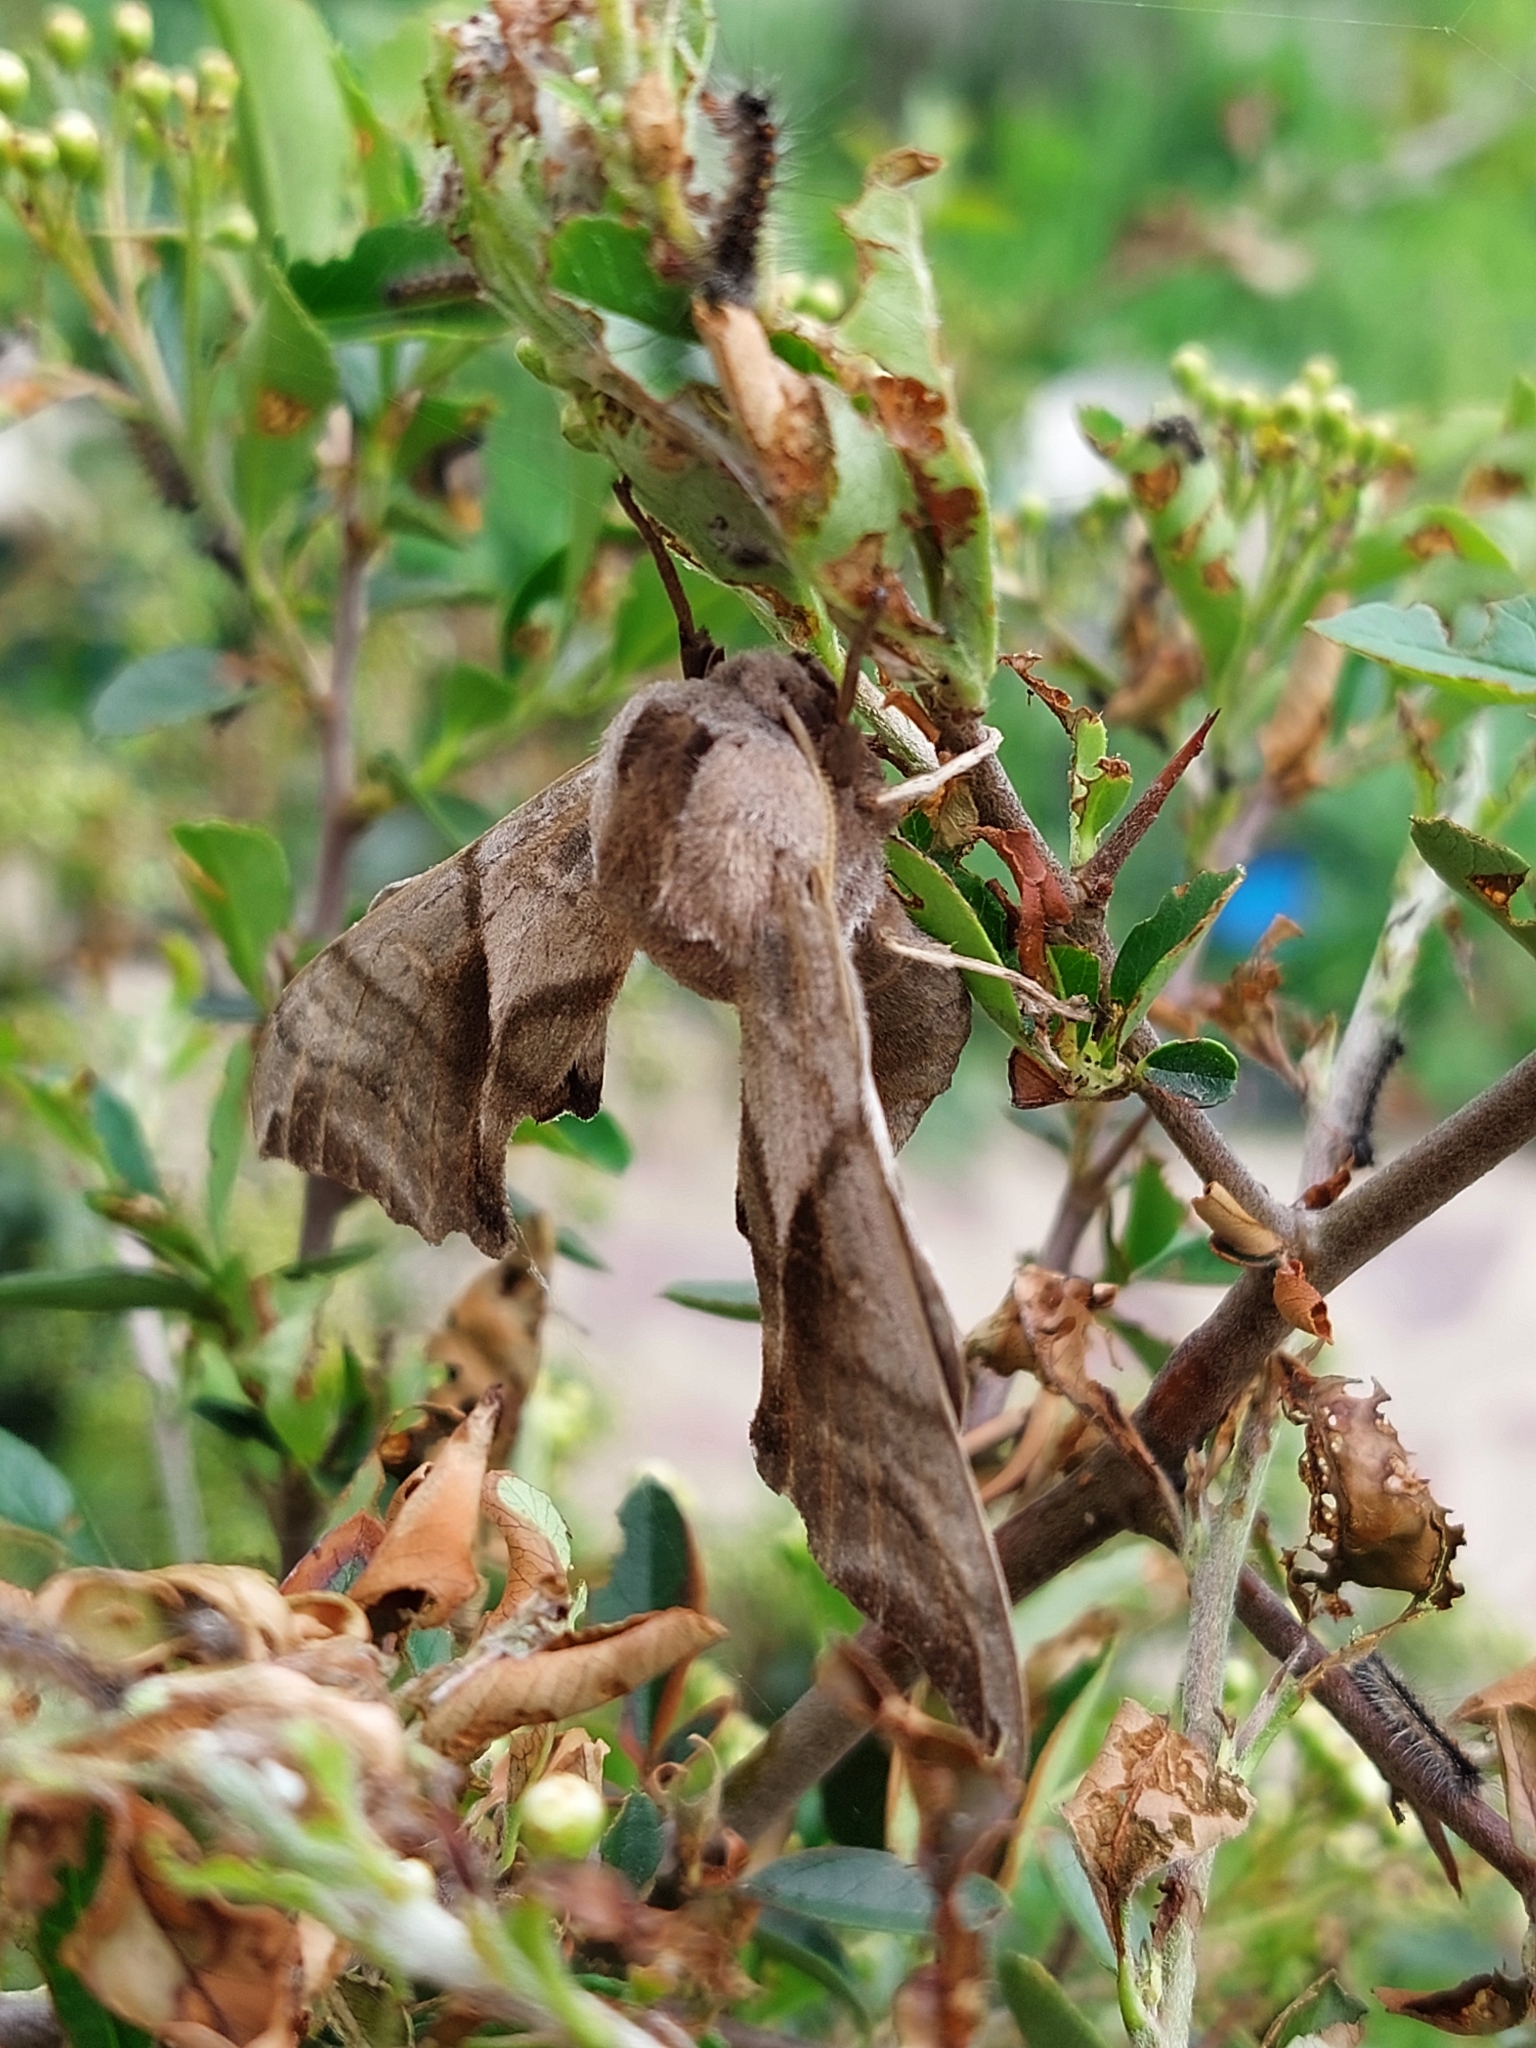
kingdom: Animalia
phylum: Arthropoda
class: Insecta
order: Lepidoptera
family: Sphingidae
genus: Smerinthus
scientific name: Smerinthus ocellata
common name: Eyed hawk-moth
